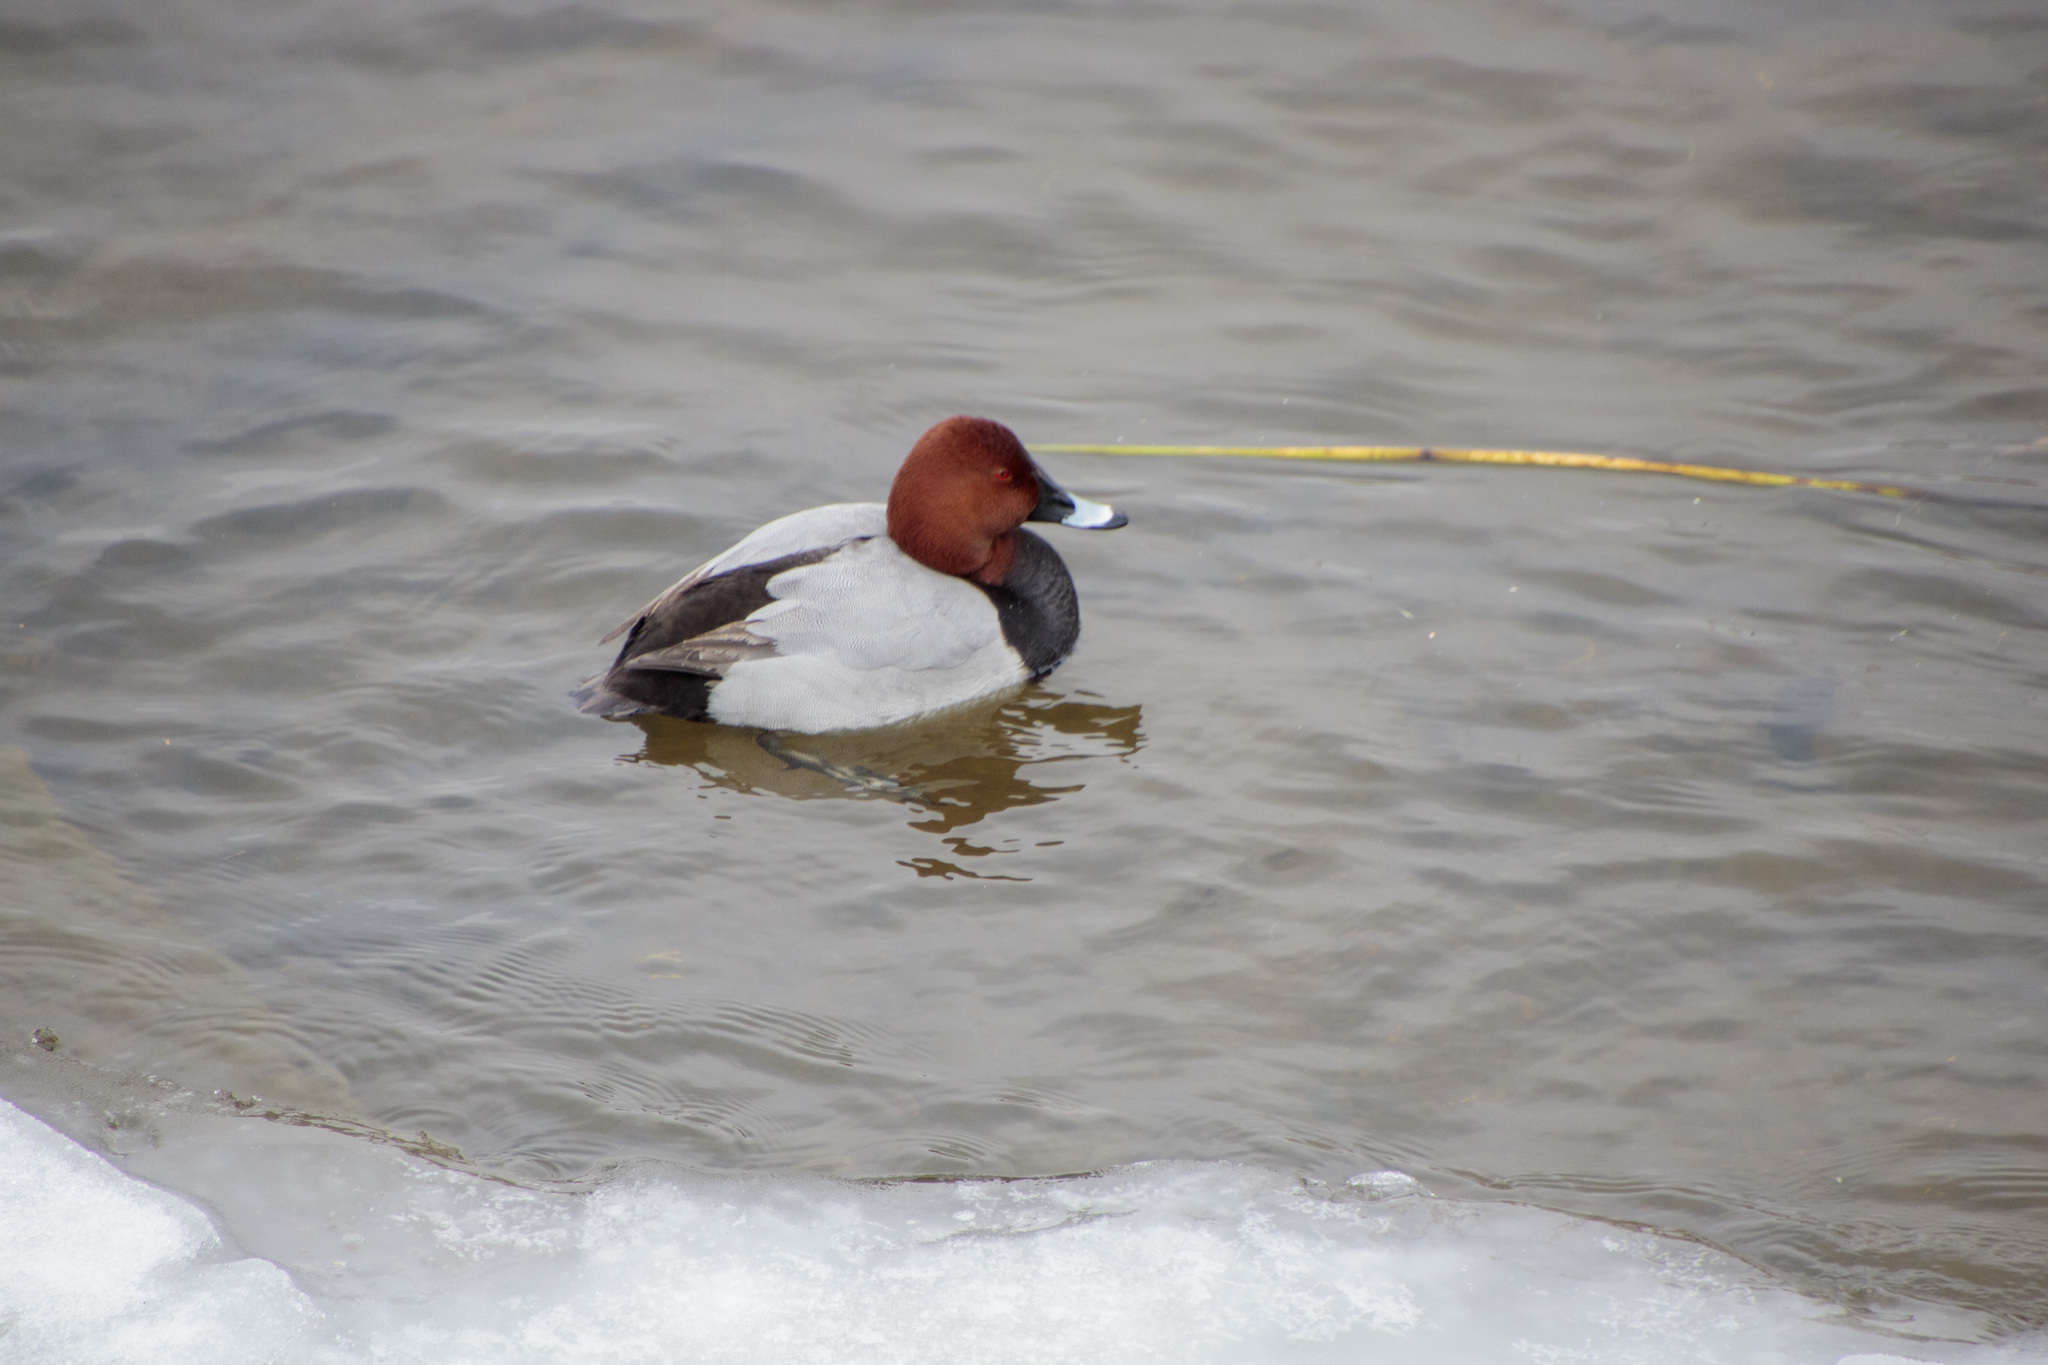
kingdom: Animalia
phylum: Chordata
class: Aves
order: Anseriformes
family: Anatidae
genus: Aythya
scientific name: Aythya ferina
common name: Common pochard
